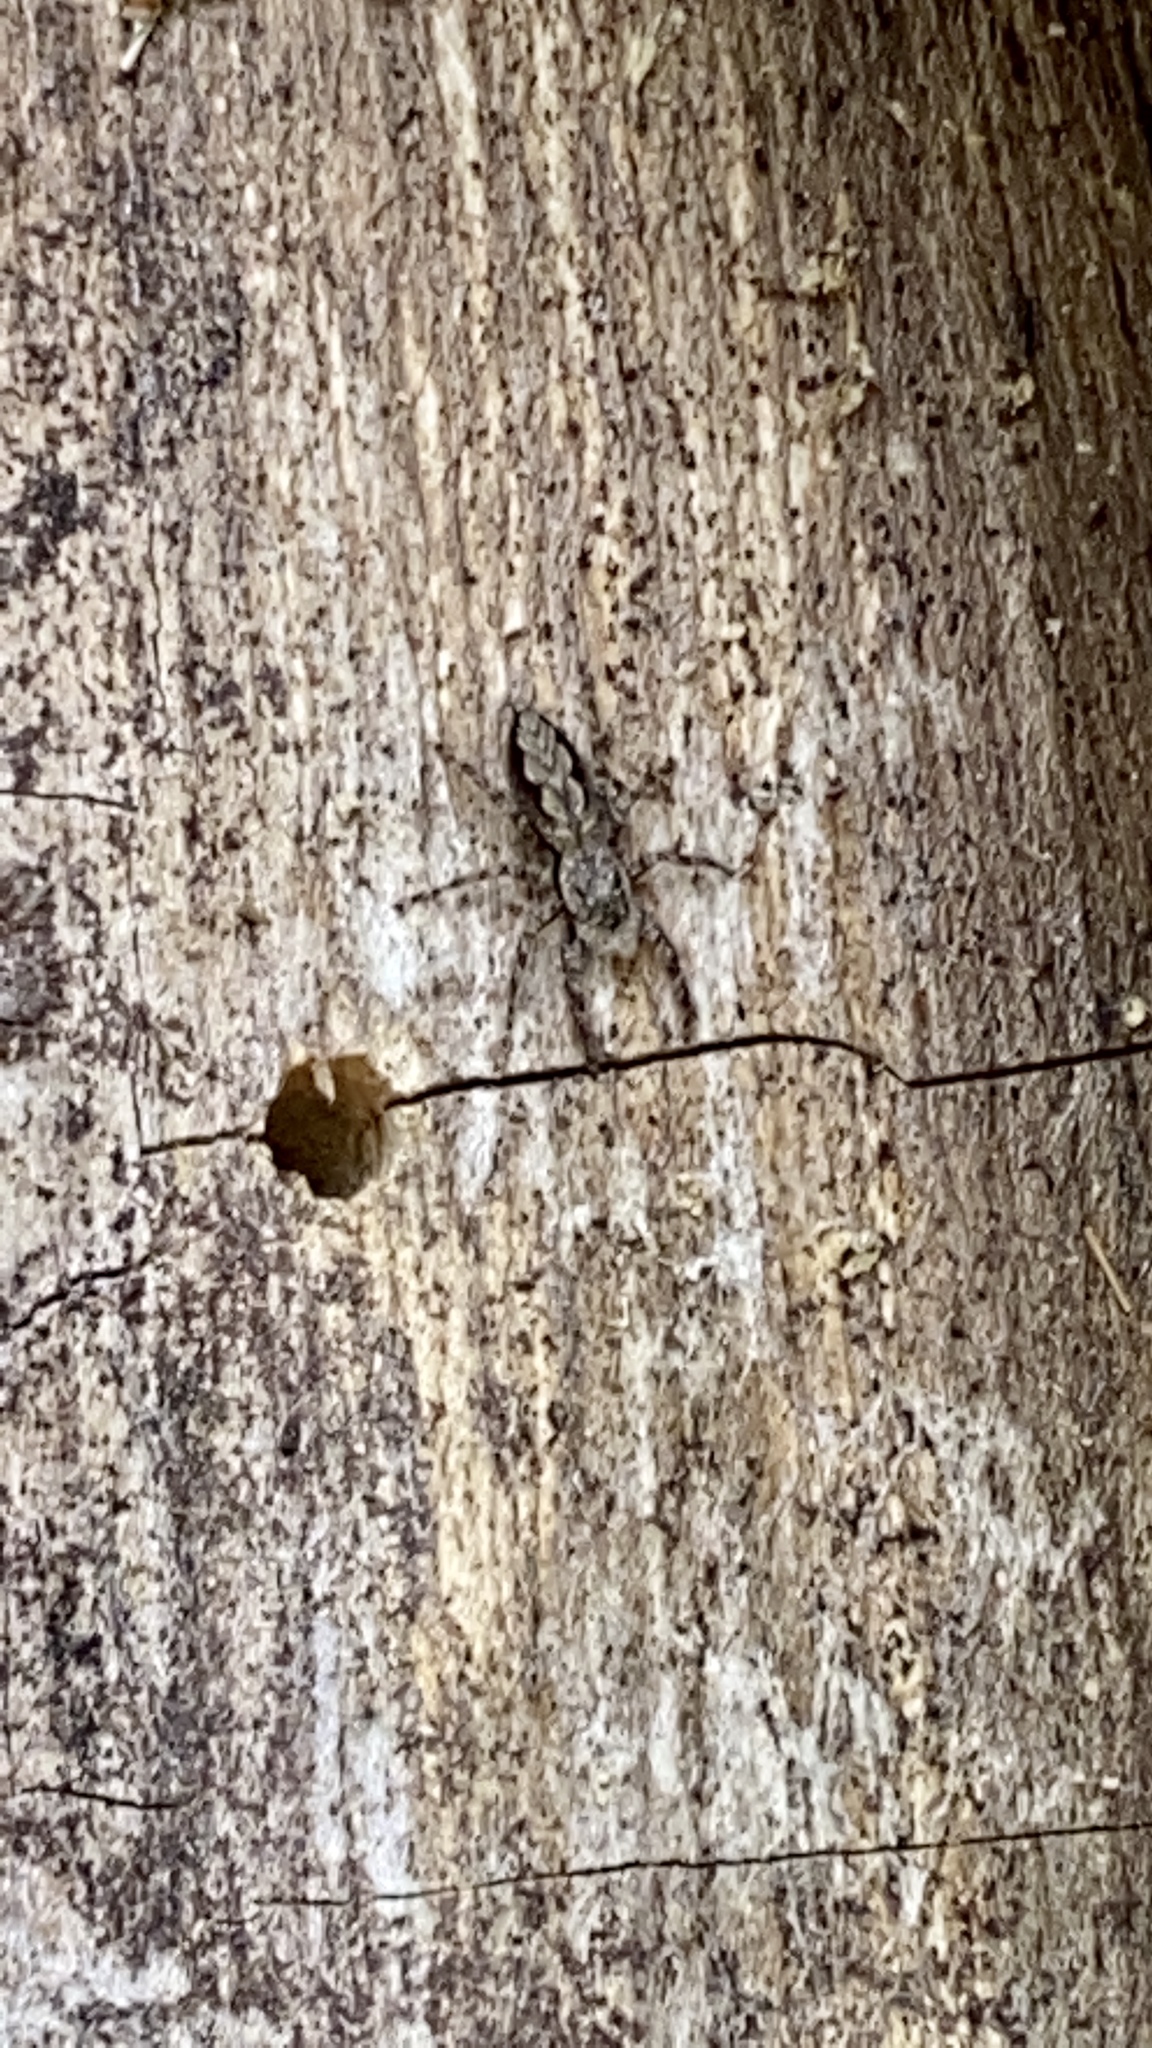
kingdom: Animalia
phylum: Arthropoda
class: Arachnida
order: Araneae
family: Salticidae
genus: Platycryptus
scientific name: Platycryptus undatus
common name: Tan jumping spider
